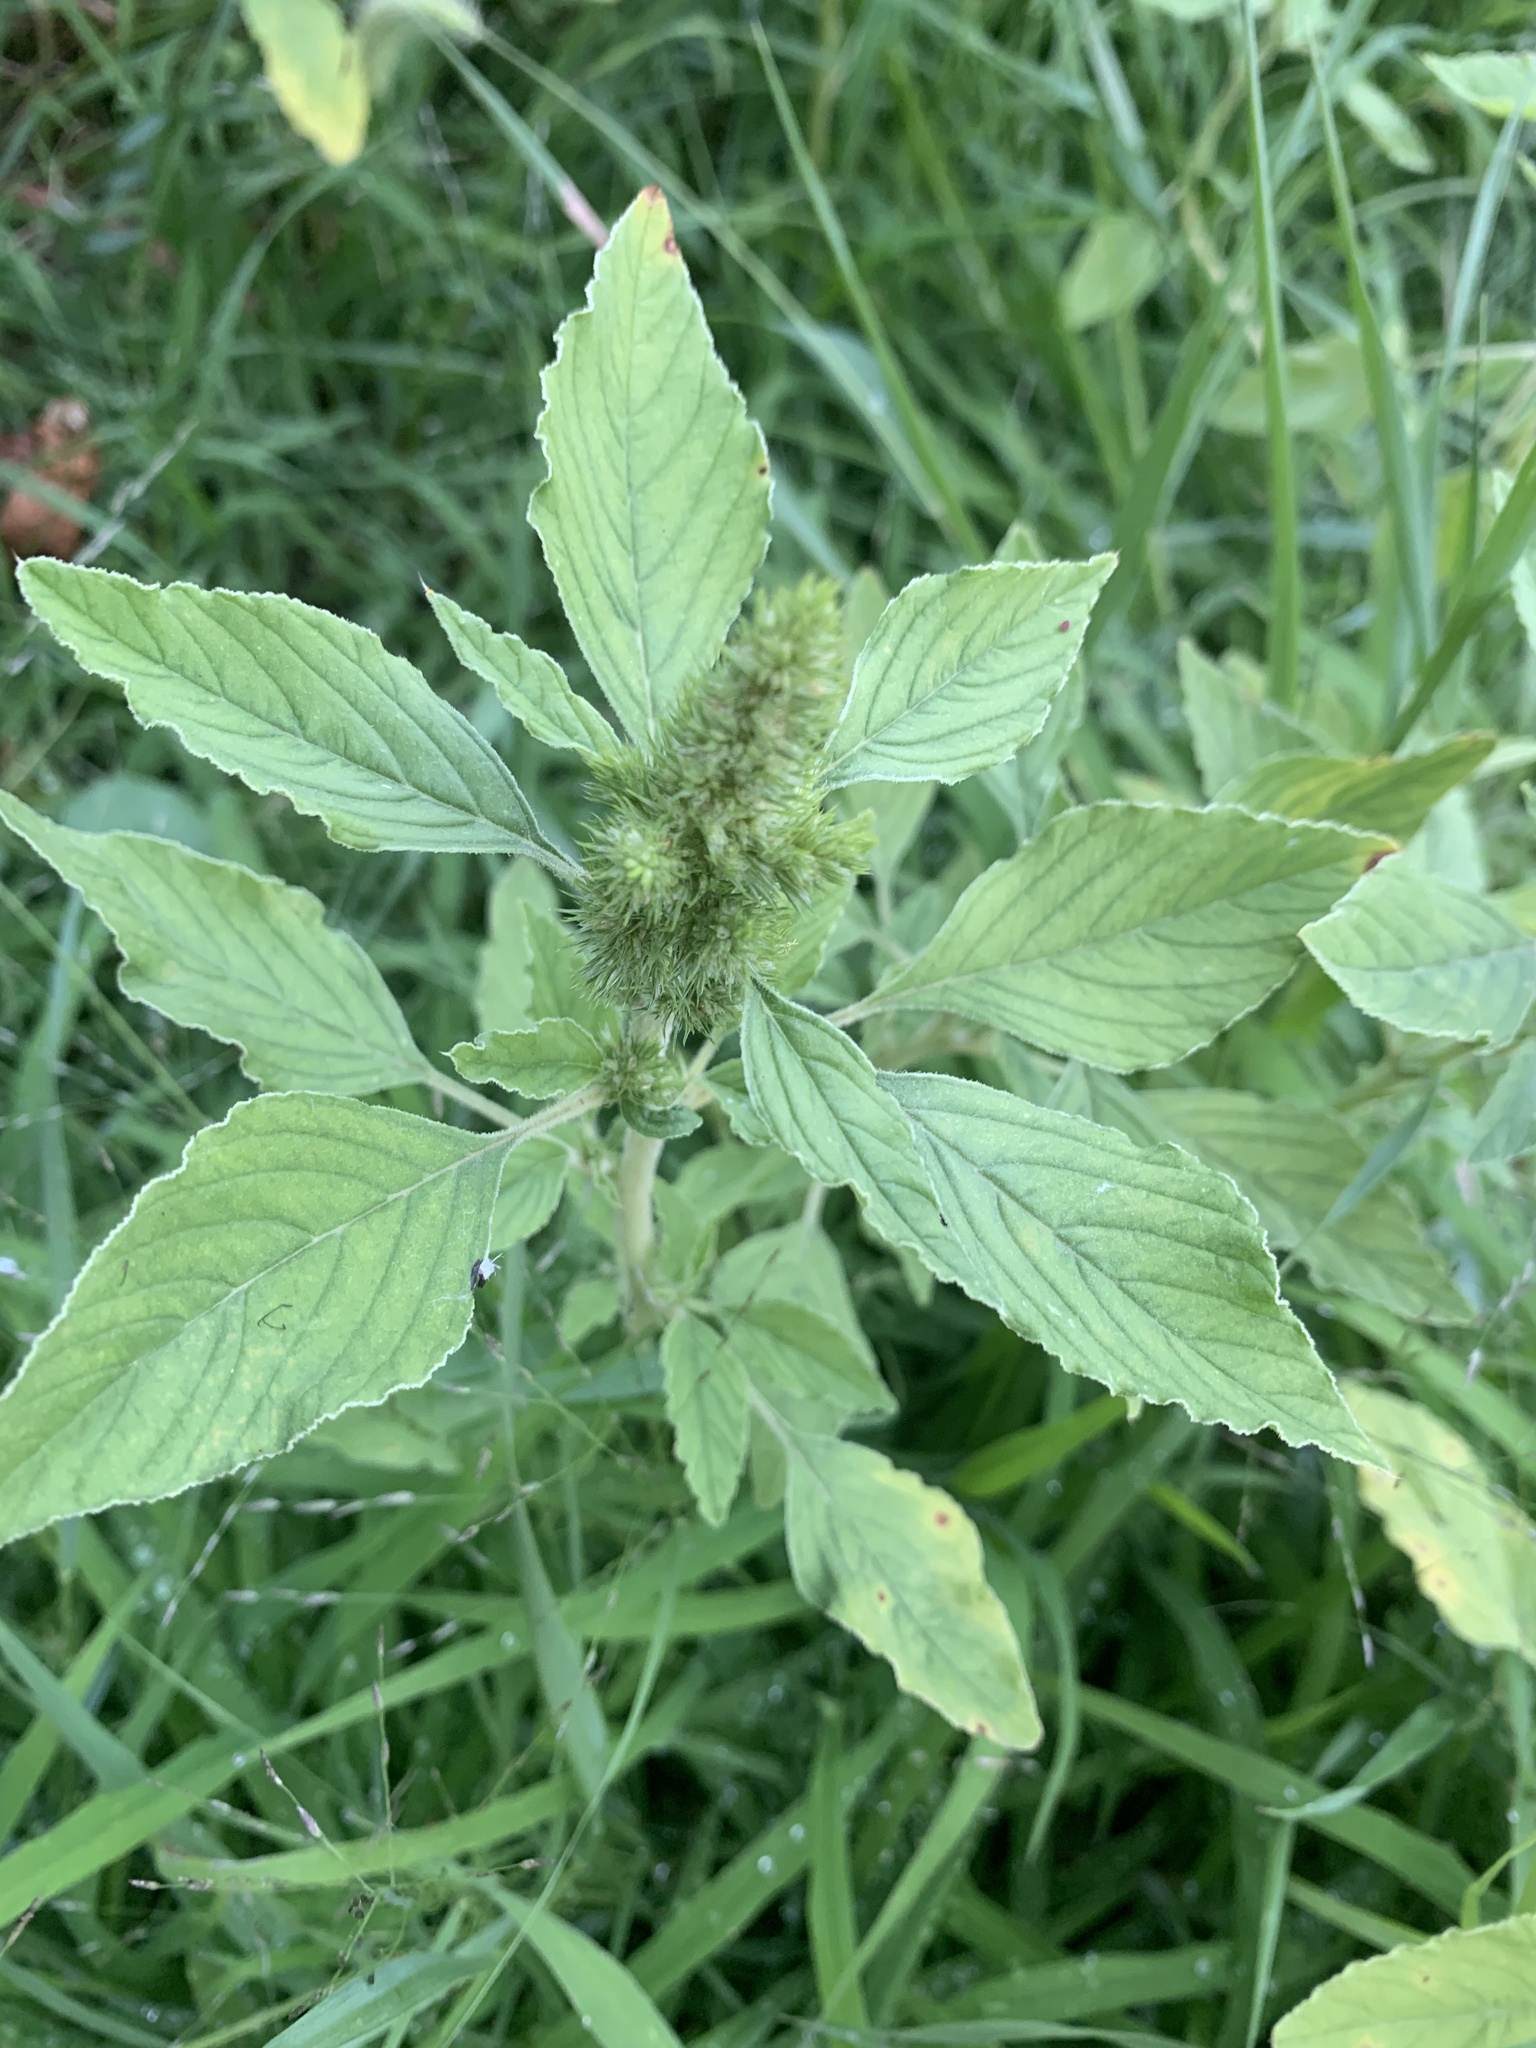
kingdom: Plantae
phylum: Tracheophyta
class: Magnoliopsida
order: Caryophyllales
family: Amaranthaceae
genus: Amaranthus
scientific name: Amaranthus retroflexus
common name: Redroot amaranth
